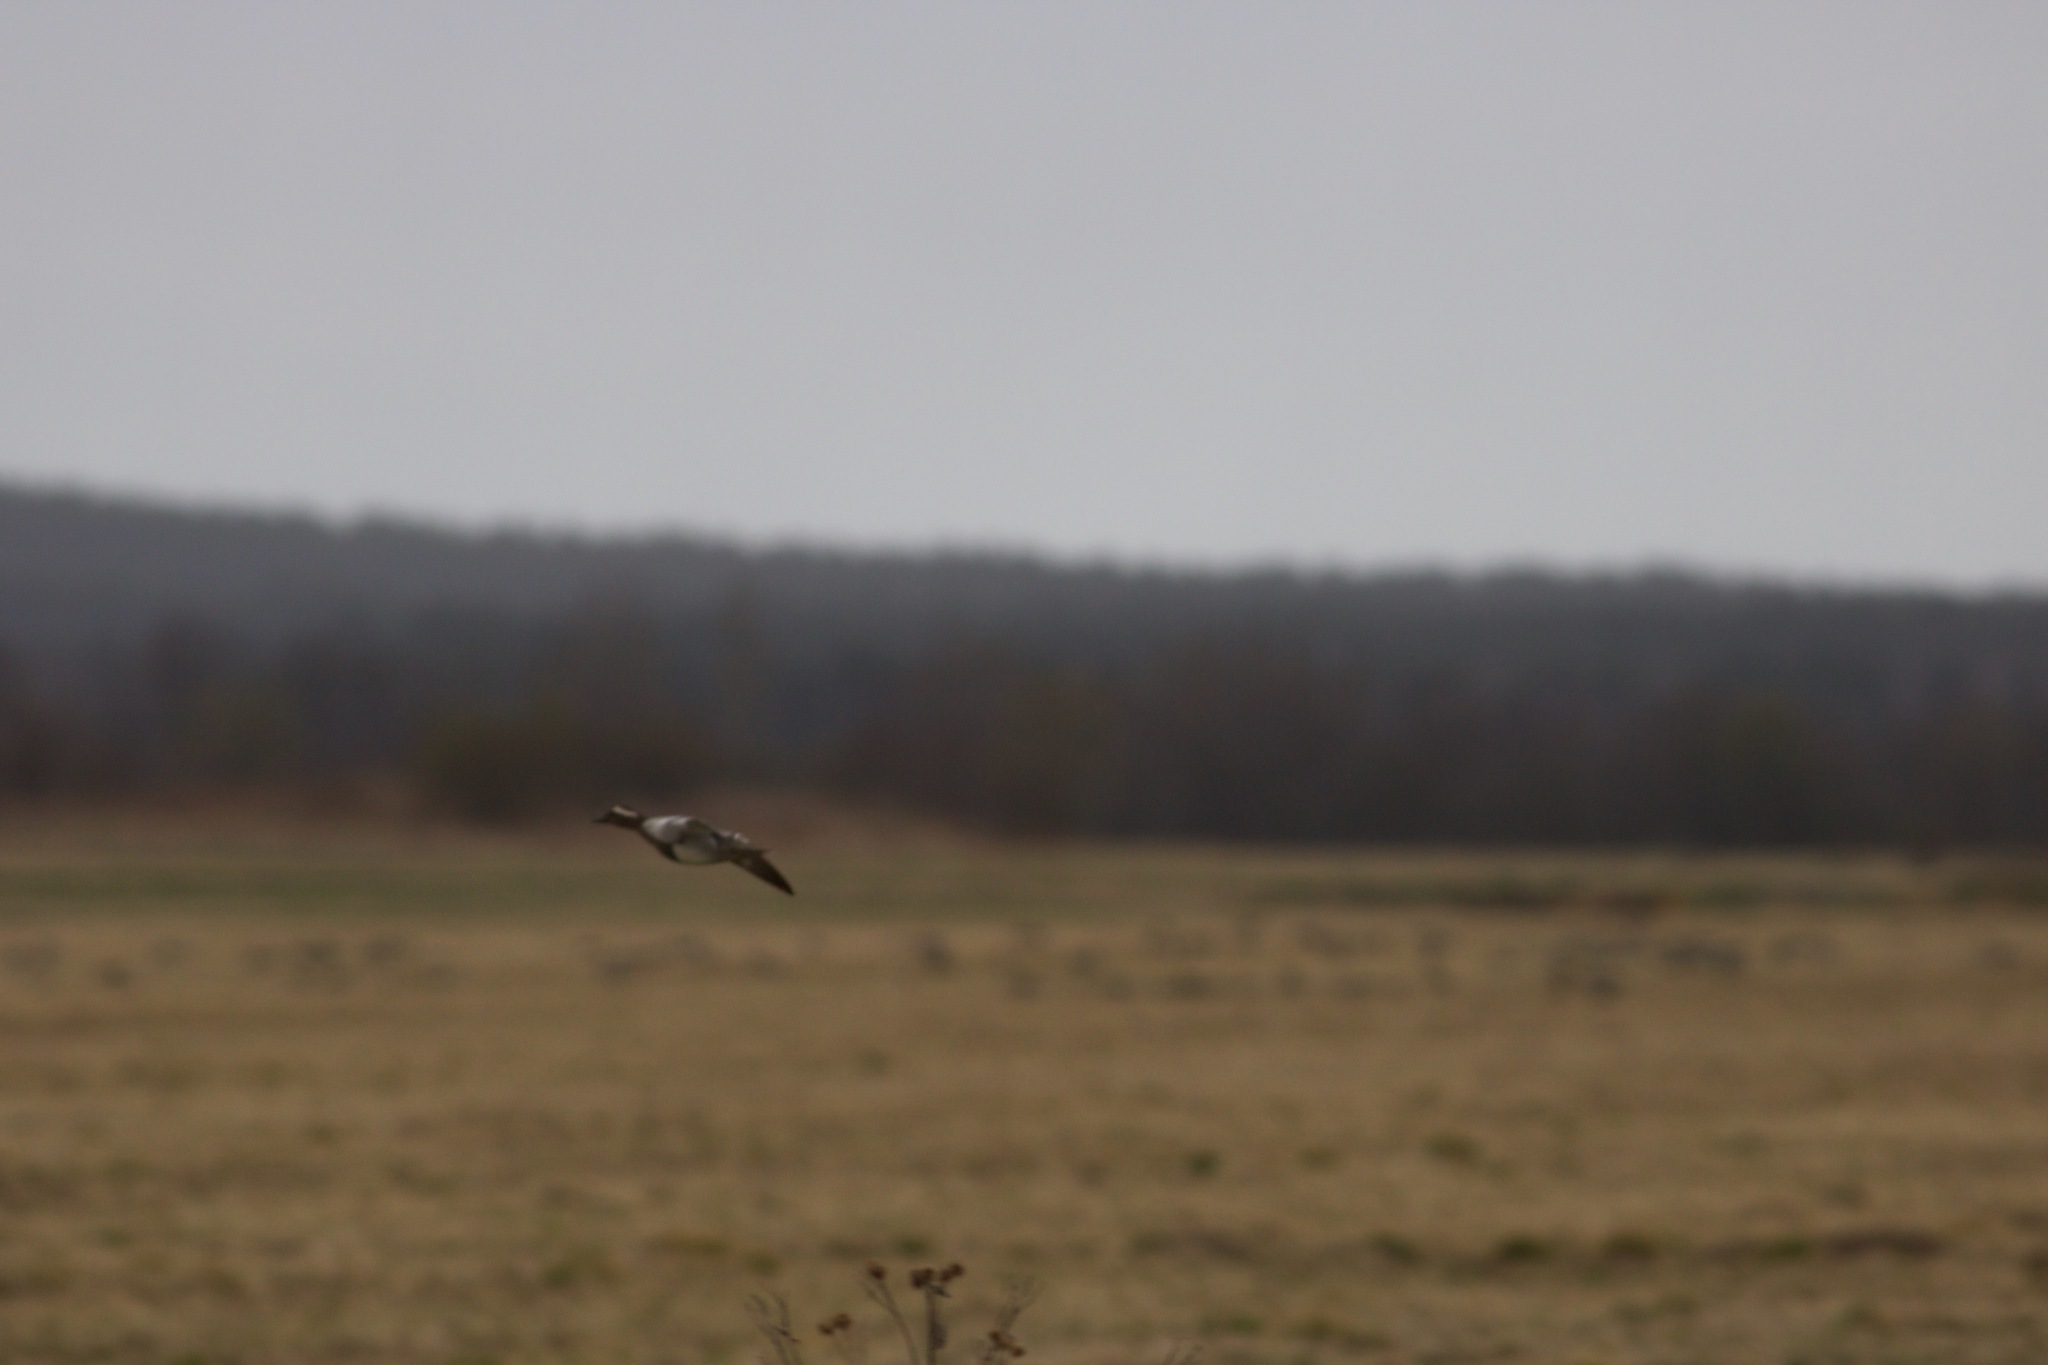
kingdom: Animalia
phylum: Chordata
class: Aves
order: Anseriformes
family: Anatidae
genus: Spatula
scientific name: Spatula querquedula
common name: Garganey
